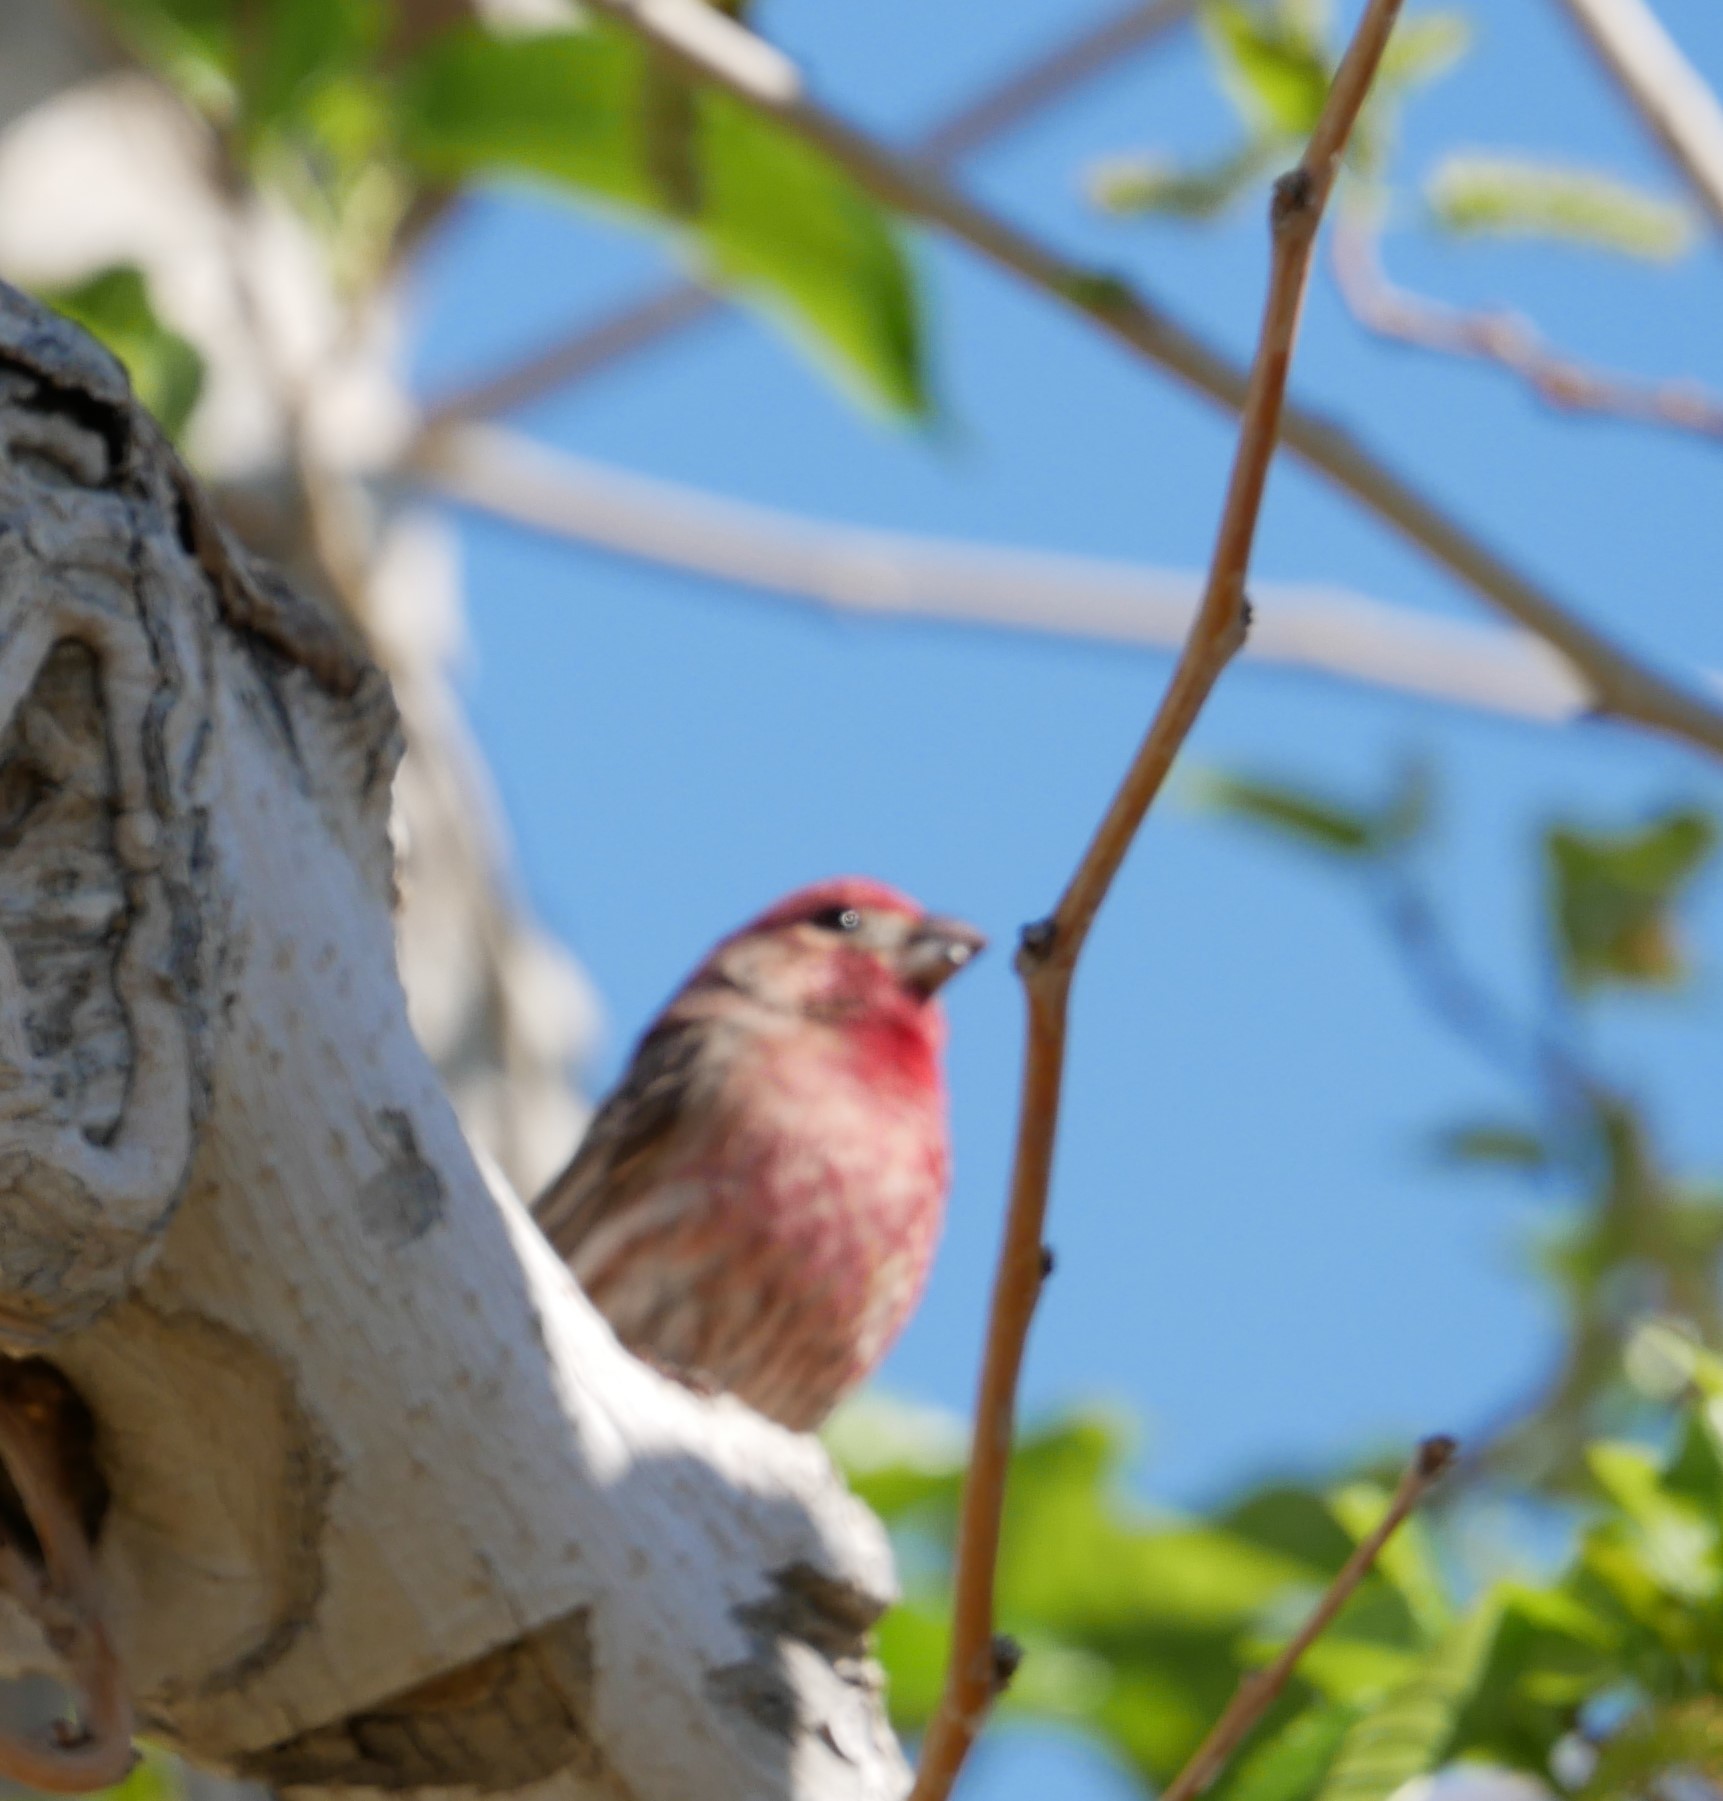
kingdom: Animalia
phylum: Chordata
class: Aves
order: Passeriformes
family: Fringillidae
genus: Haemorhous
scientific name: Haemorhous mexicanus
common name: House finch
